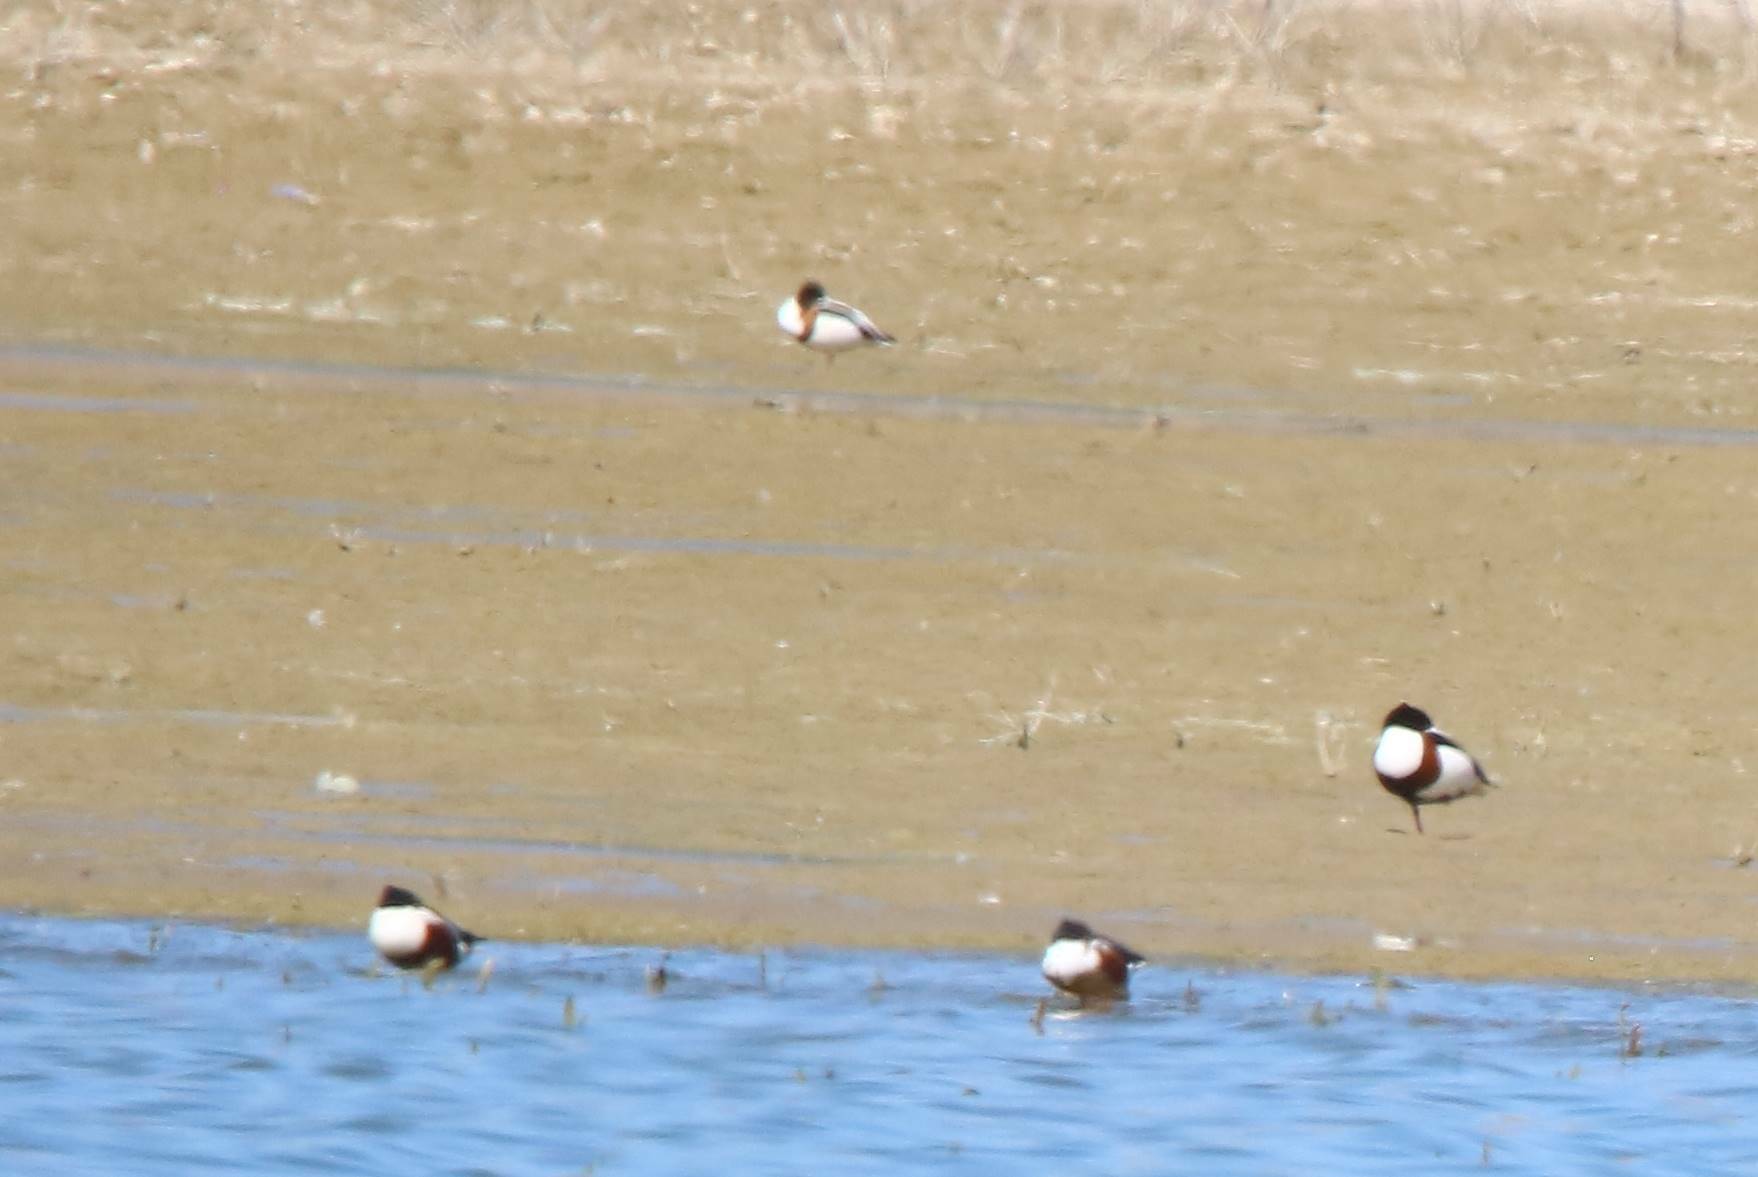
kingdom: Animalia
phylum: Chordata
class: Aves
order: Anseriformes
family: Anatidae
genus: Spatula
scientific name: Spatula clypeata
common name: Northern shoveler
